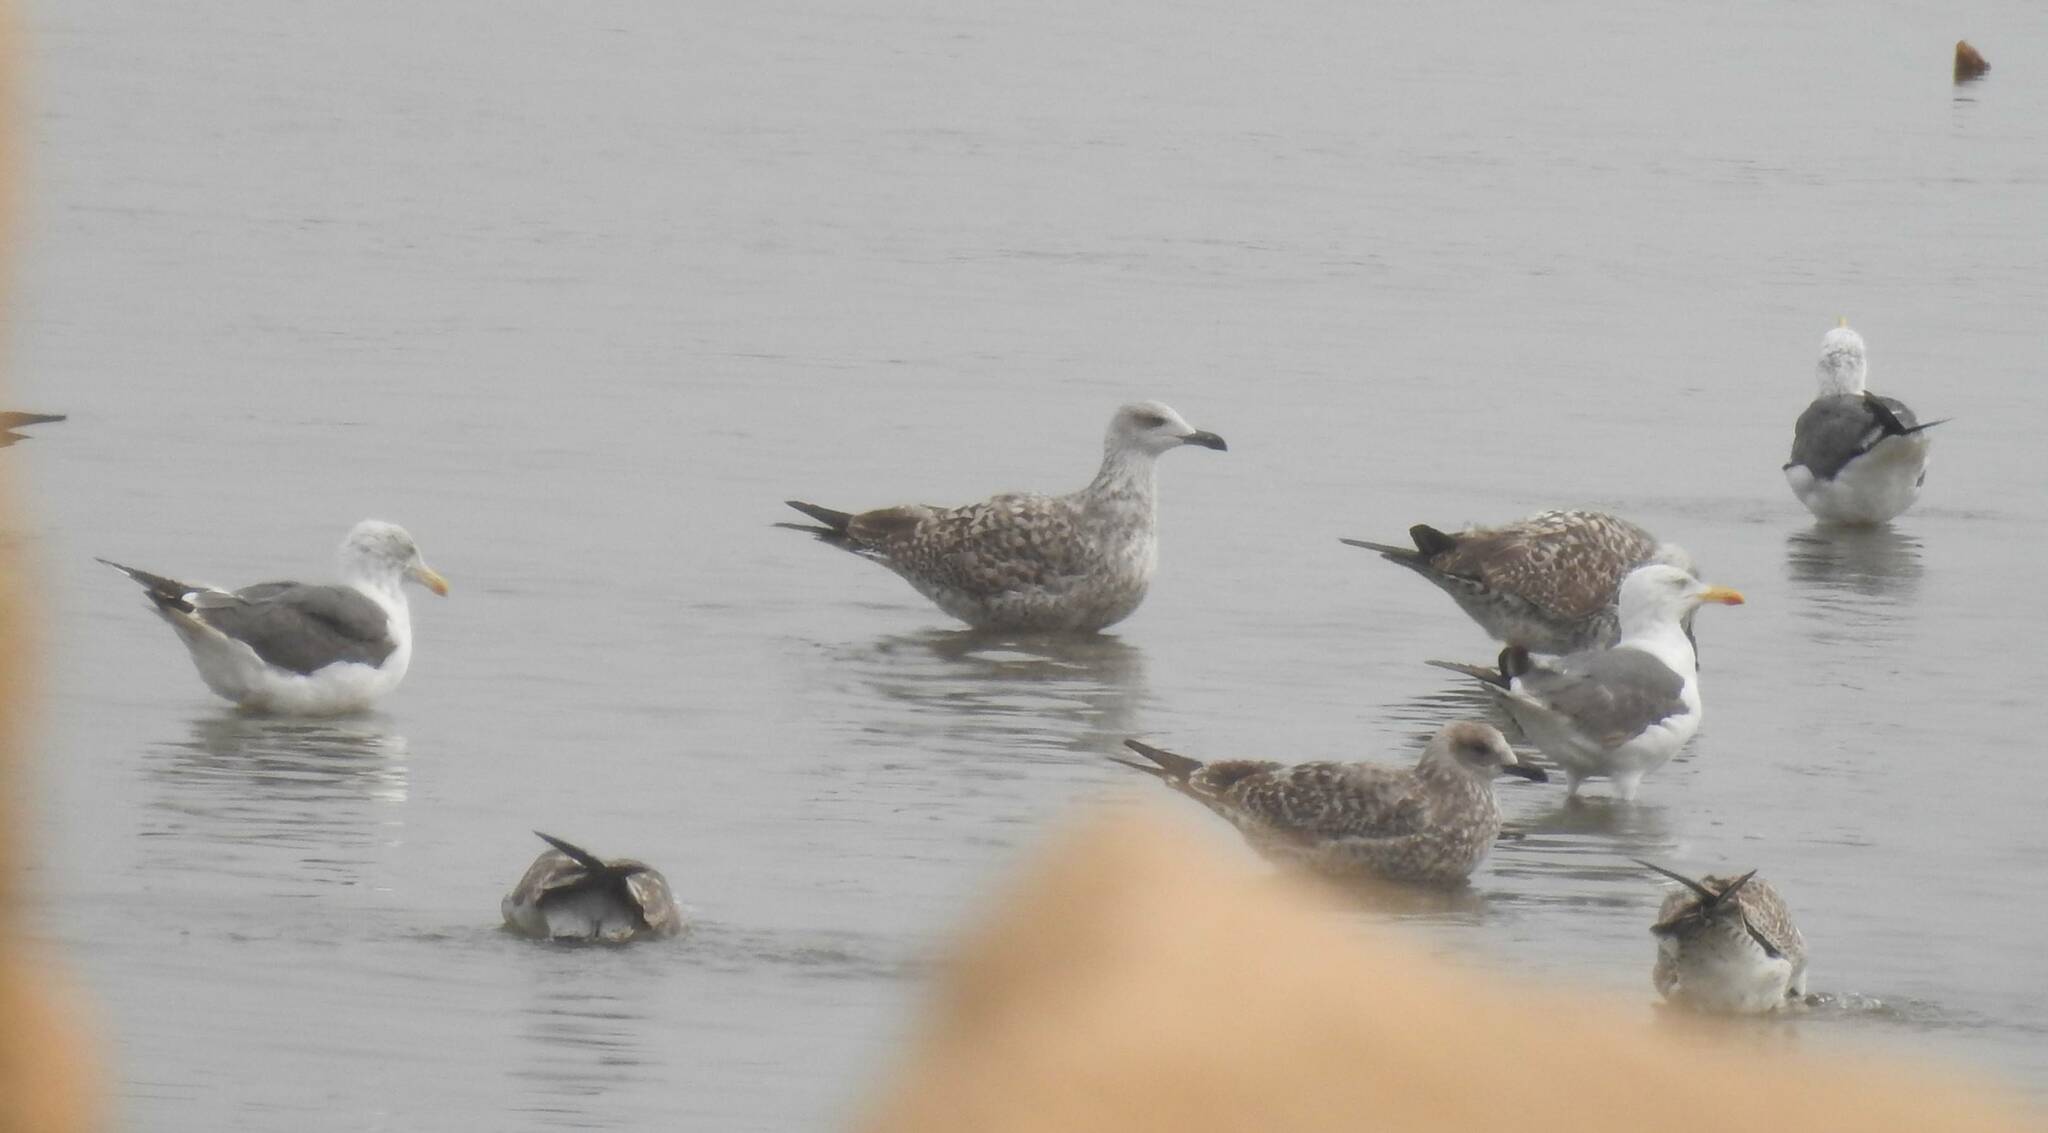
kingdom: Animalia
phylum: Chordata
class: Aves
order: Charadriiformes
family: Laridae
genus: Larus
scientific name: Larus michahellis
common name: Yellow-legged gull
